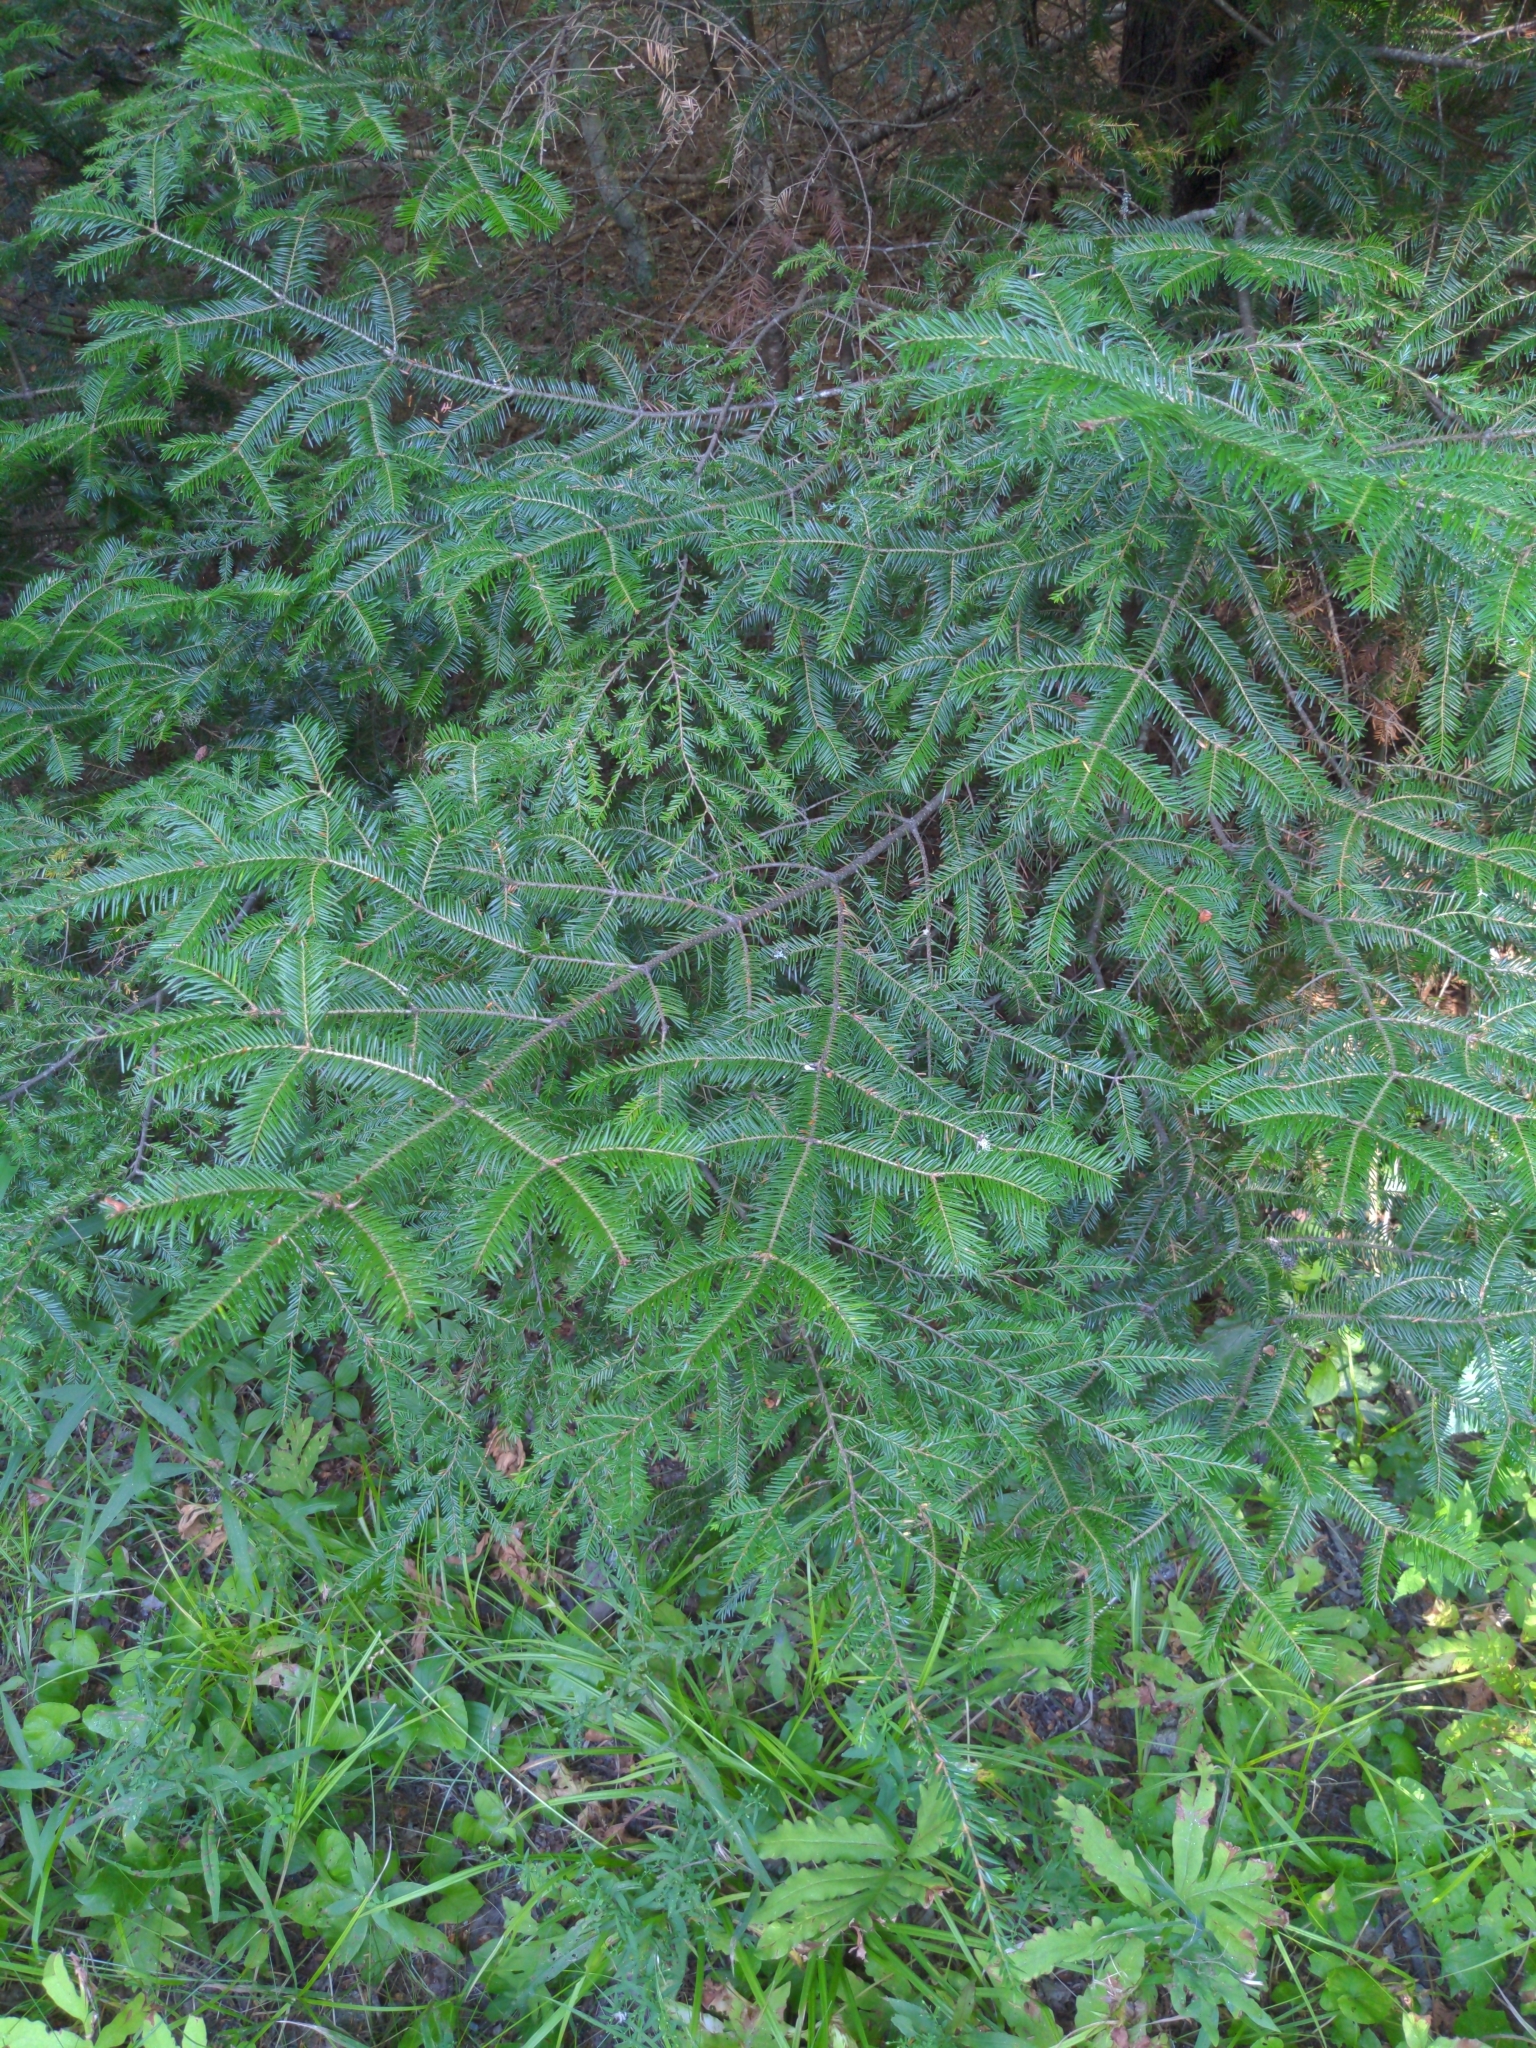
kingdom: Plantae
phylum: Tracheophyta
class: Pinopsida
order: Pinales
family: Pinaceae
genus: Abies
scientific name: Abies balsamea
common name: Balsam fir
